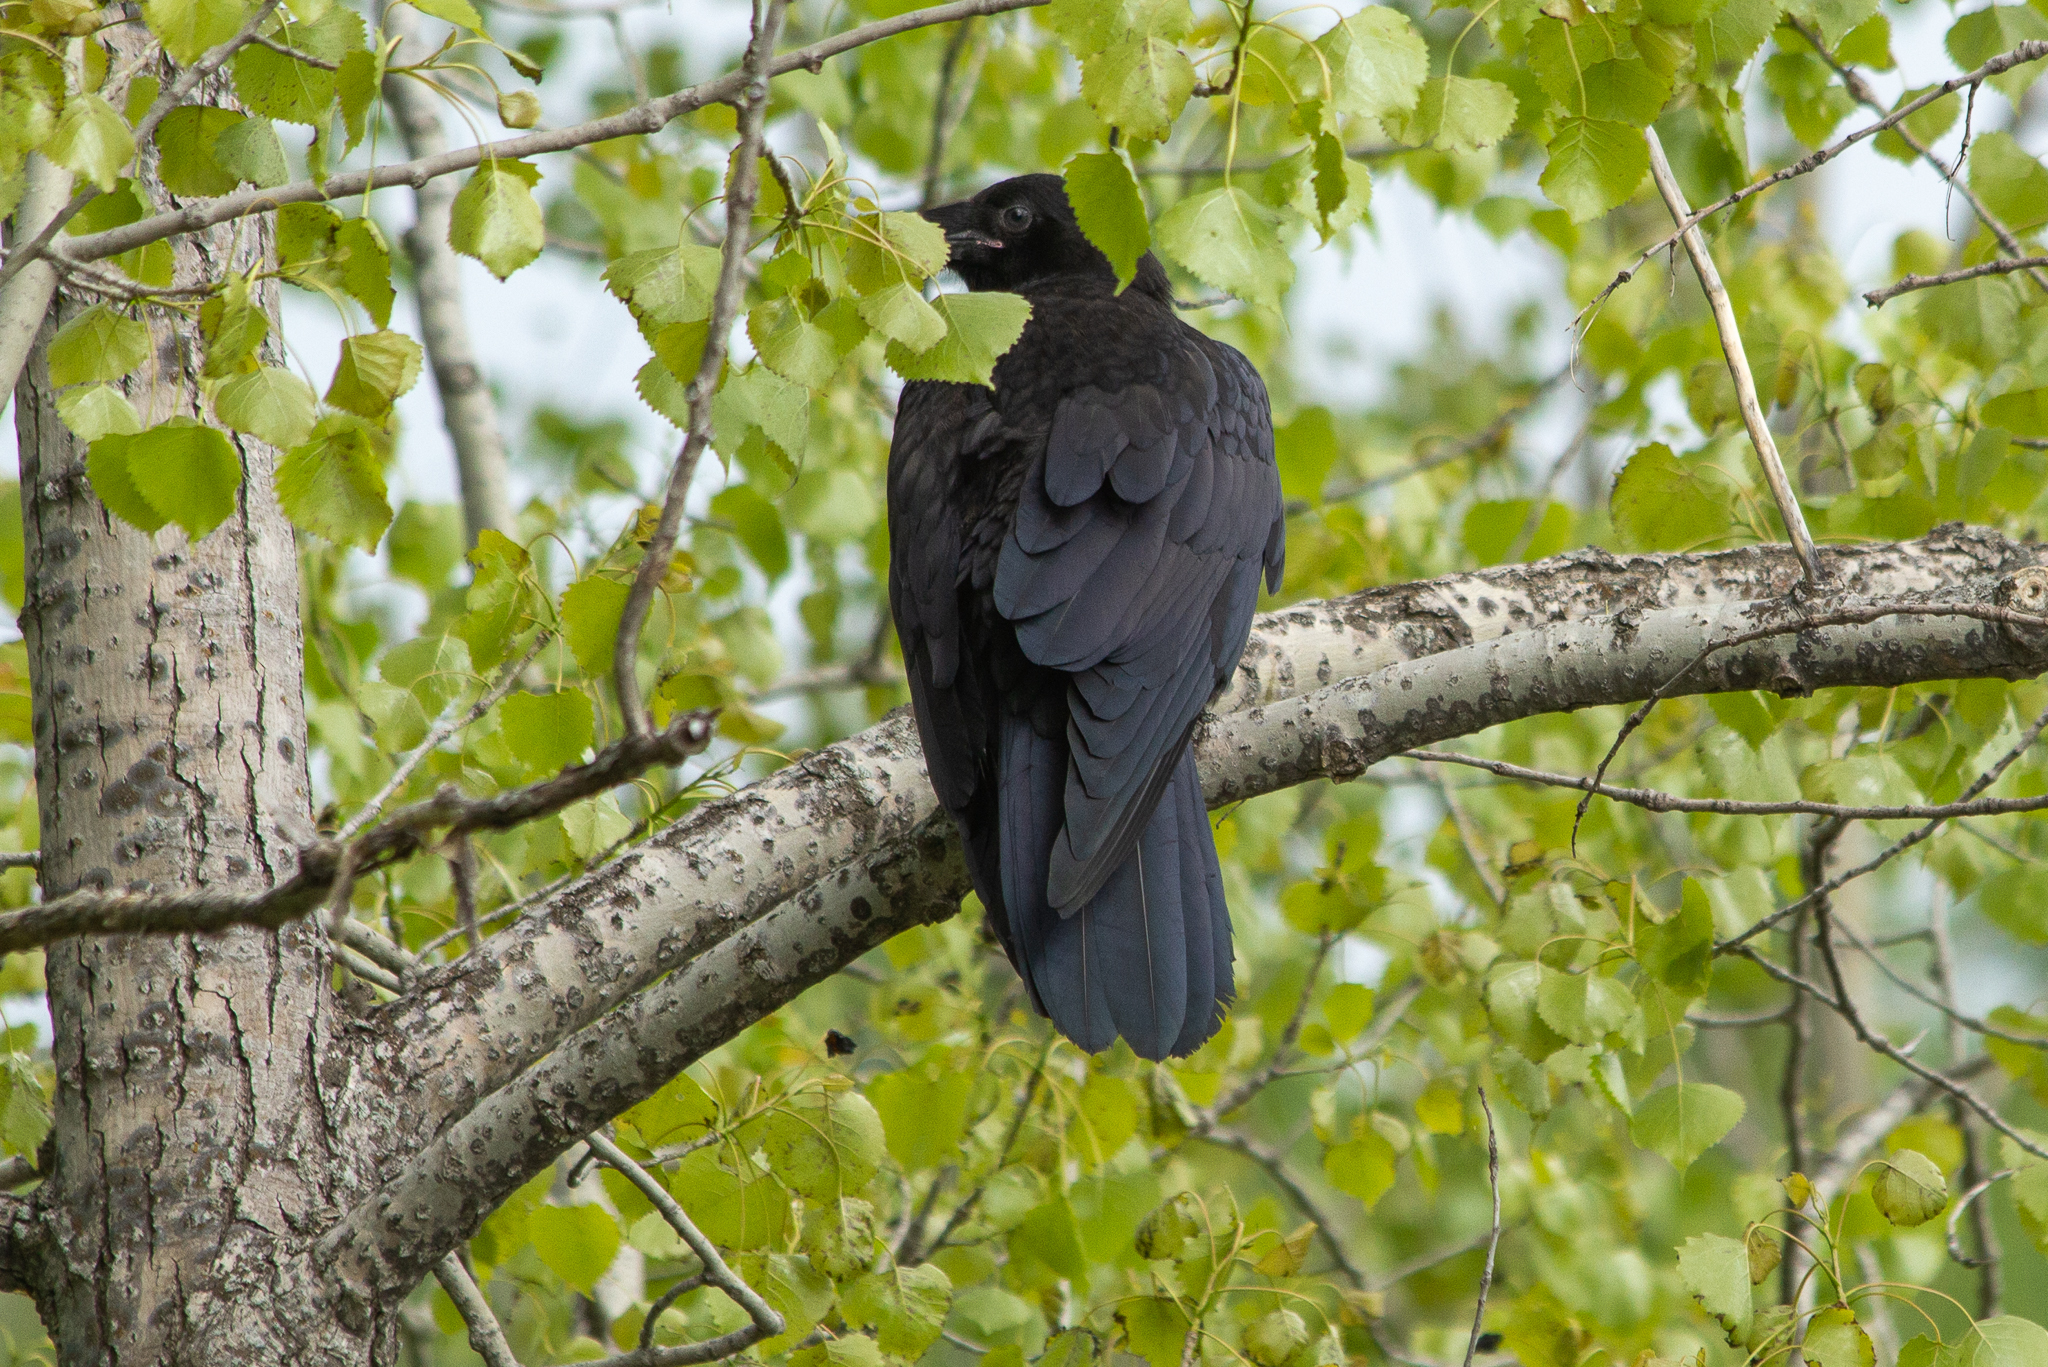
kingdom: Animalia
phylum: Chordata
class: Aves
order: Passeriformes
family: Corvidae
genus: Corvus
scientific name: Corvus corax
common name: Common raven
